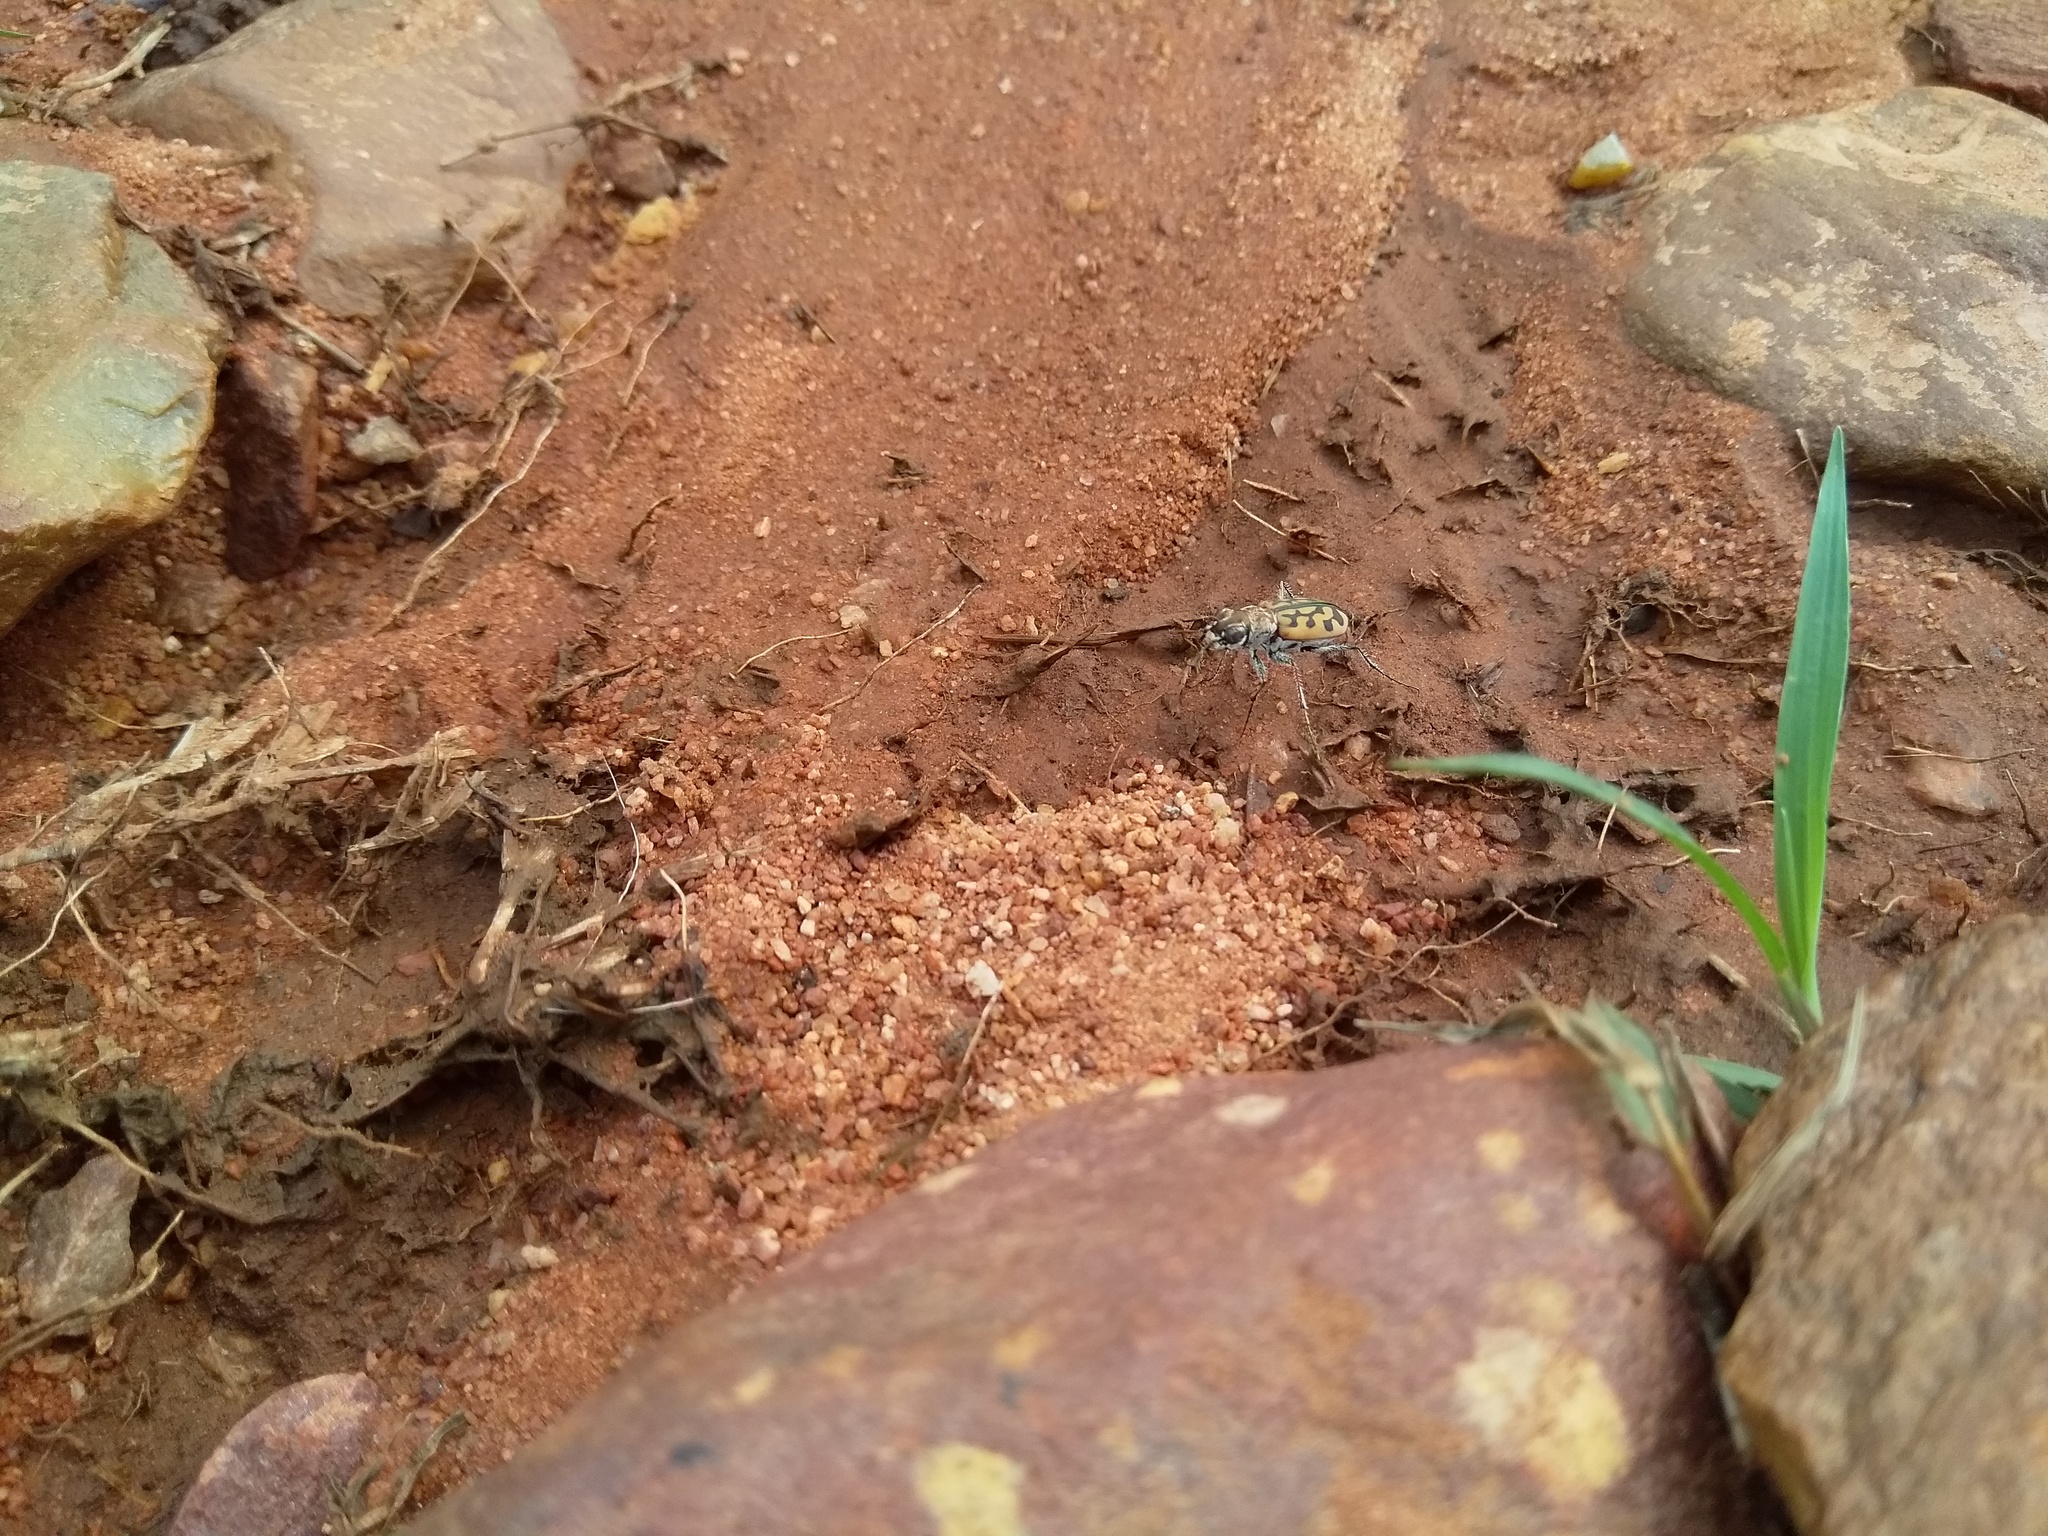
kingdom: Animalia
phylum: Arthropoda
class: Insecta
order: Coleoptera
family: Carabidae
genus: Lophyra
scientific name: Lophyra catena
